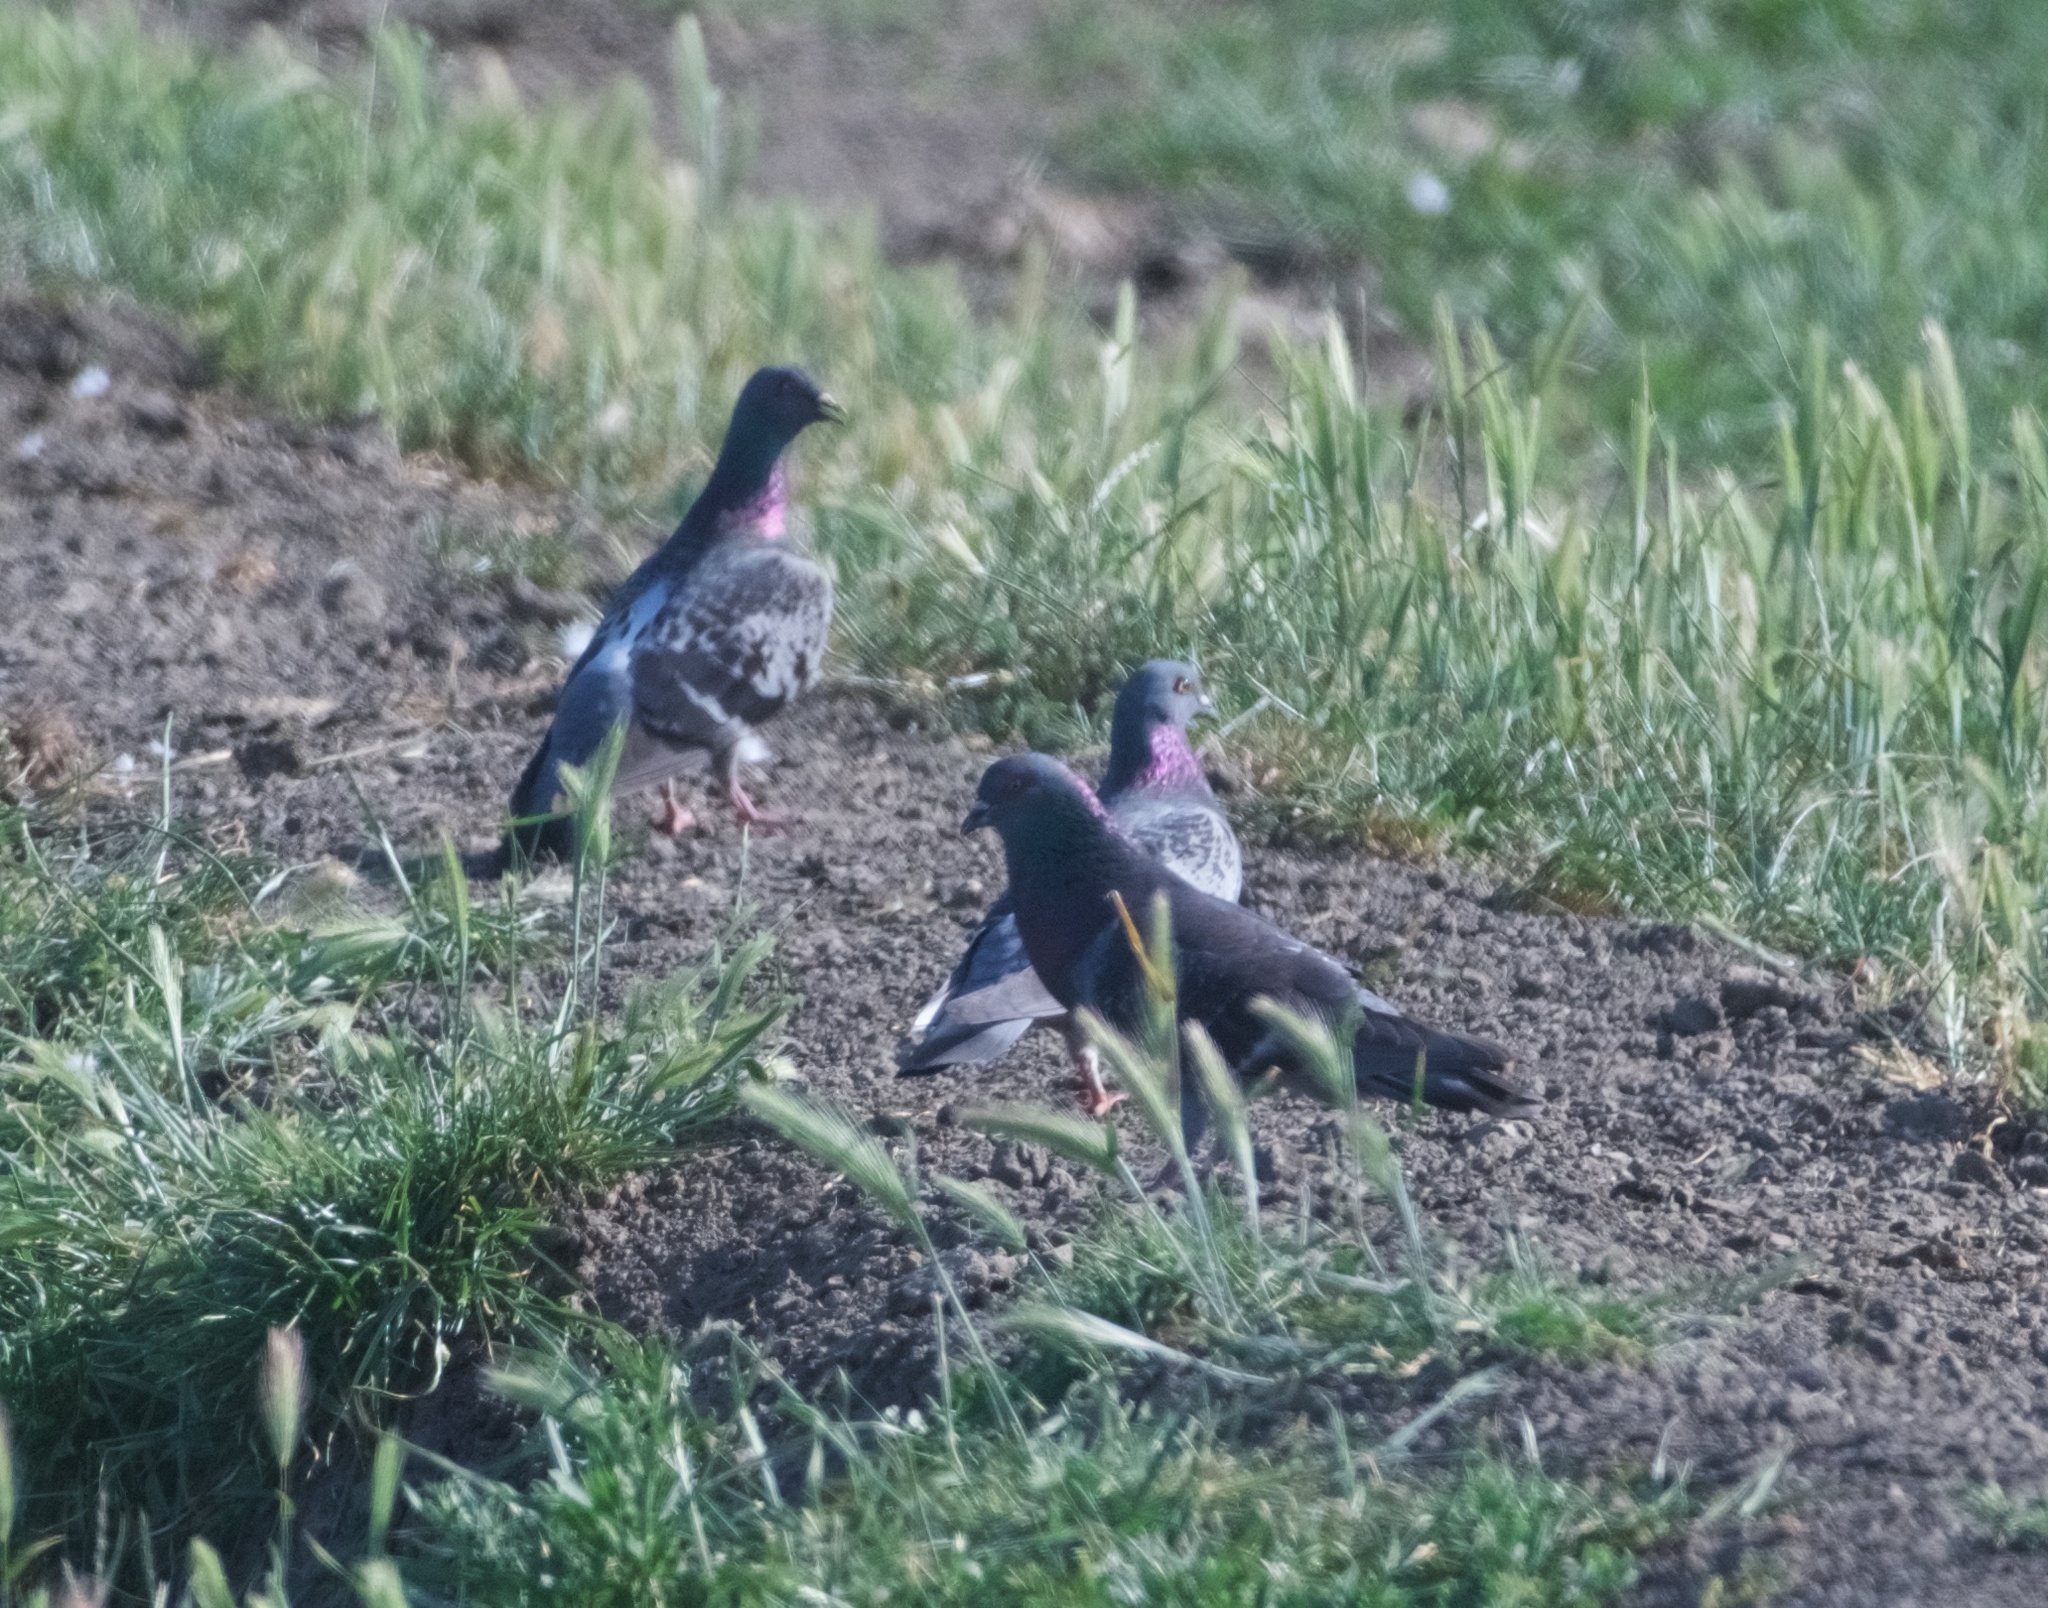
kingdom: Animalia
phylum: Chordata
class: Aves
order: Columbiformes
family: Columbidae
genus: Columba
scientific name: Columba livia
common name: Rock pigeon
